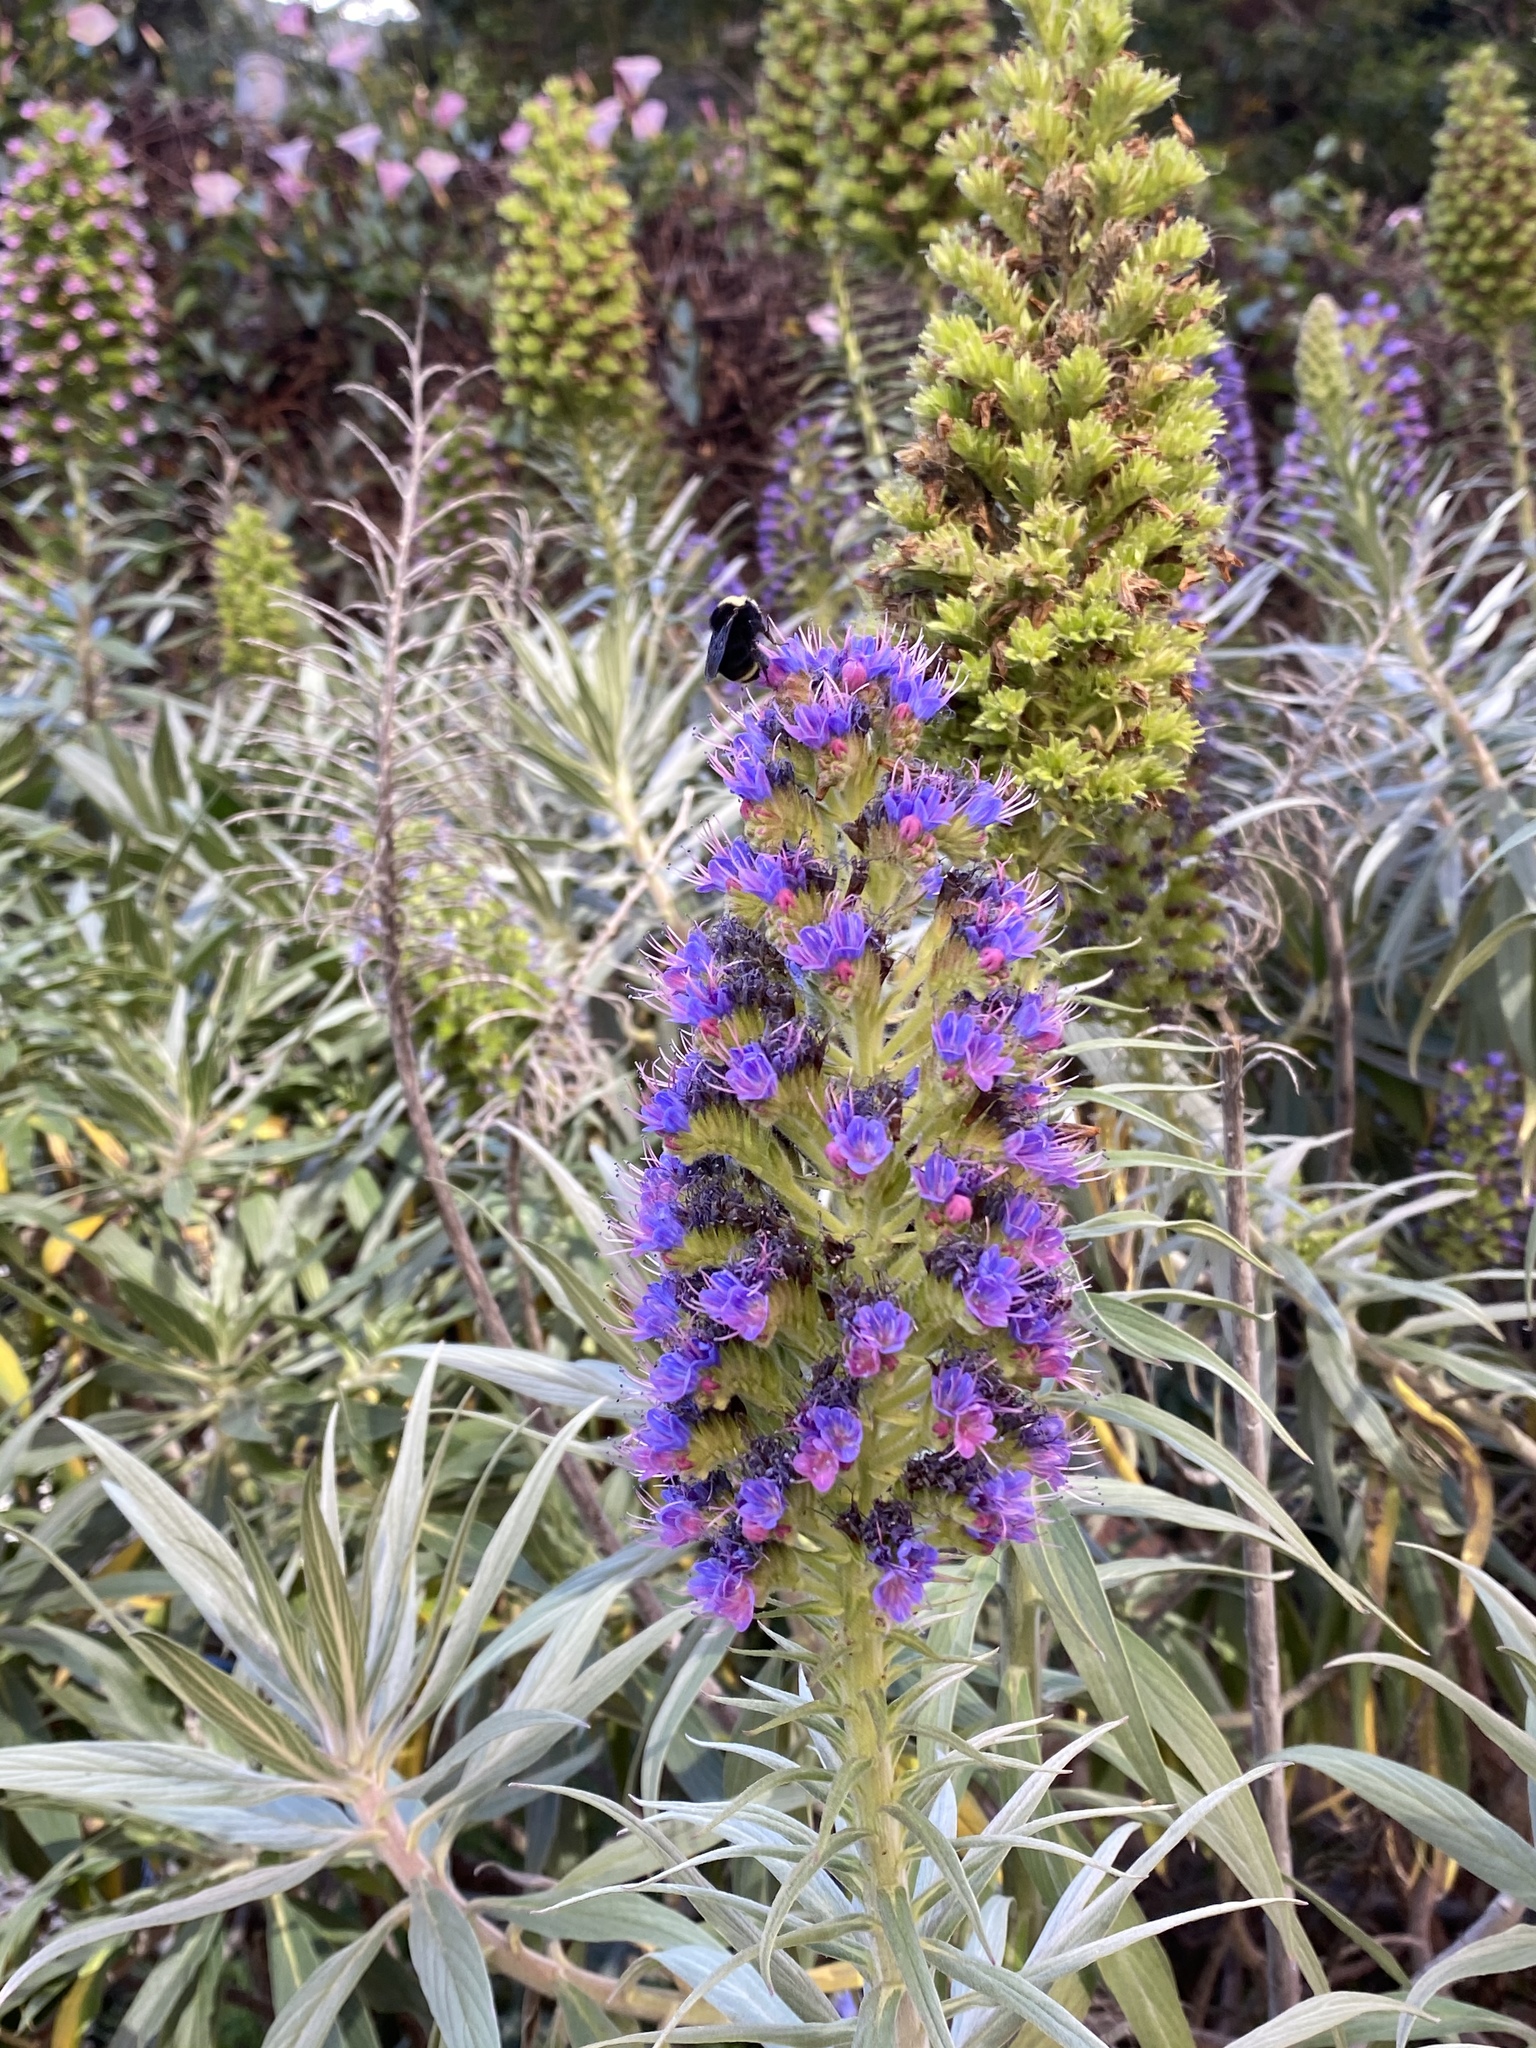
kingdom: Plantae
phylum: Tracheophyta
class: Magnoliopsida
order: Boraginales
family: Boraginaceae
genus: Echium
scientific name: Echium candicans
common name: Pride of madeira
